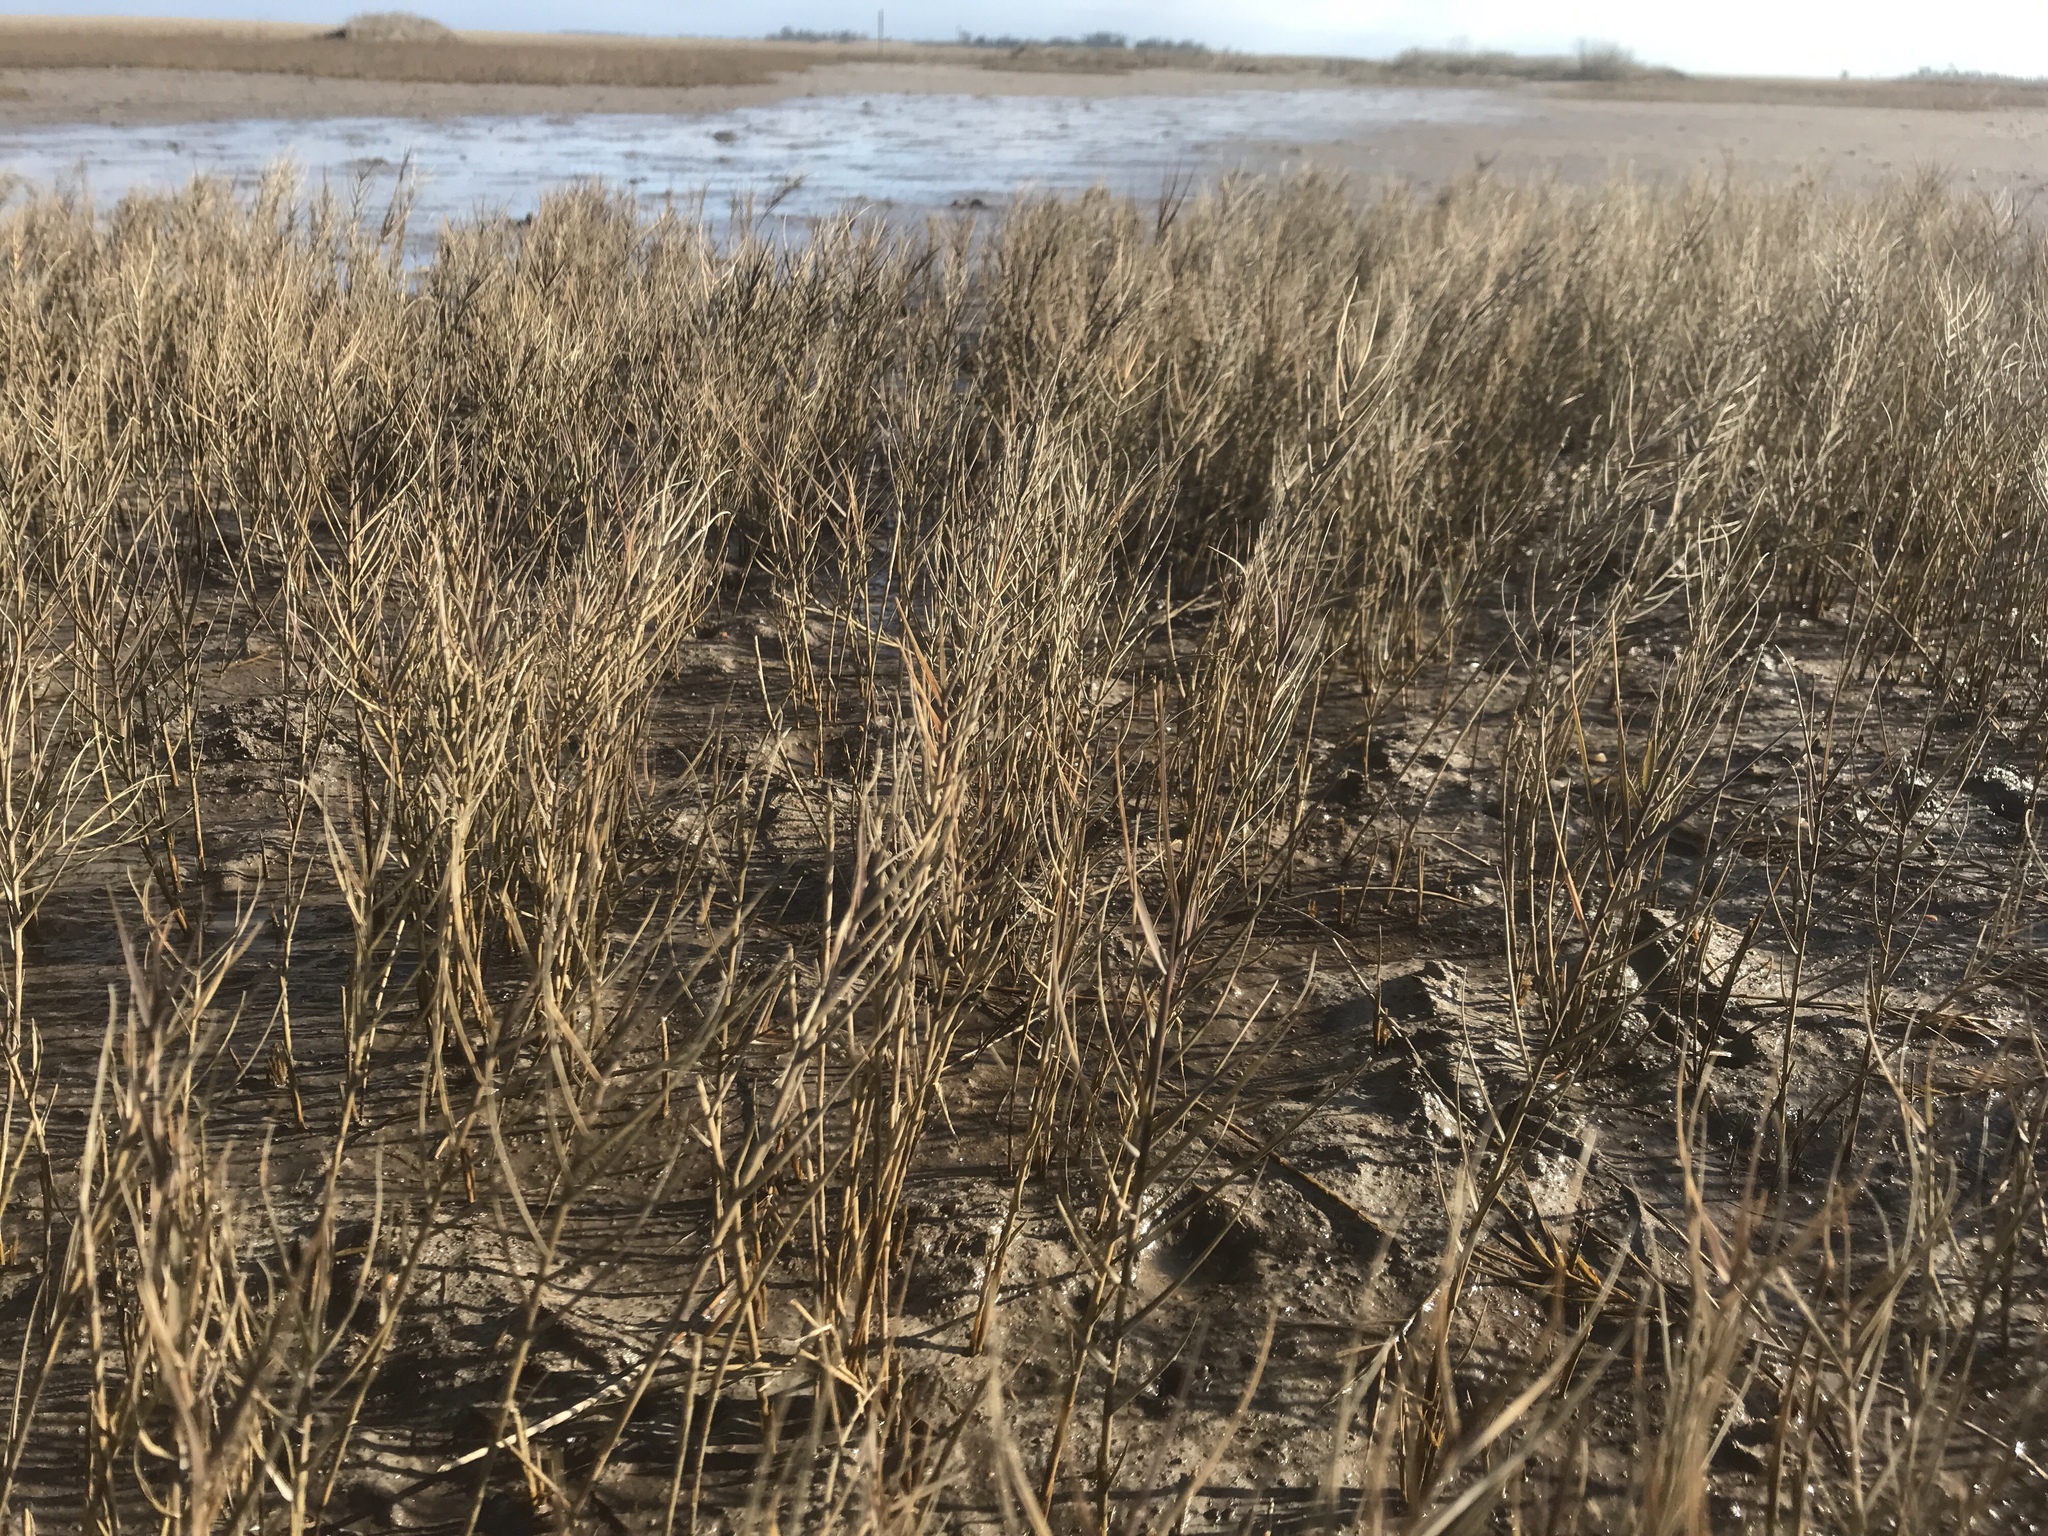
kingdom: Plantae
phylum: Tracheophyta
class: Liliopsida
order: Poales
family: Poaceae
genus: Distichlis
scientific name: Distichlis spicata
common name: Saltgrass
